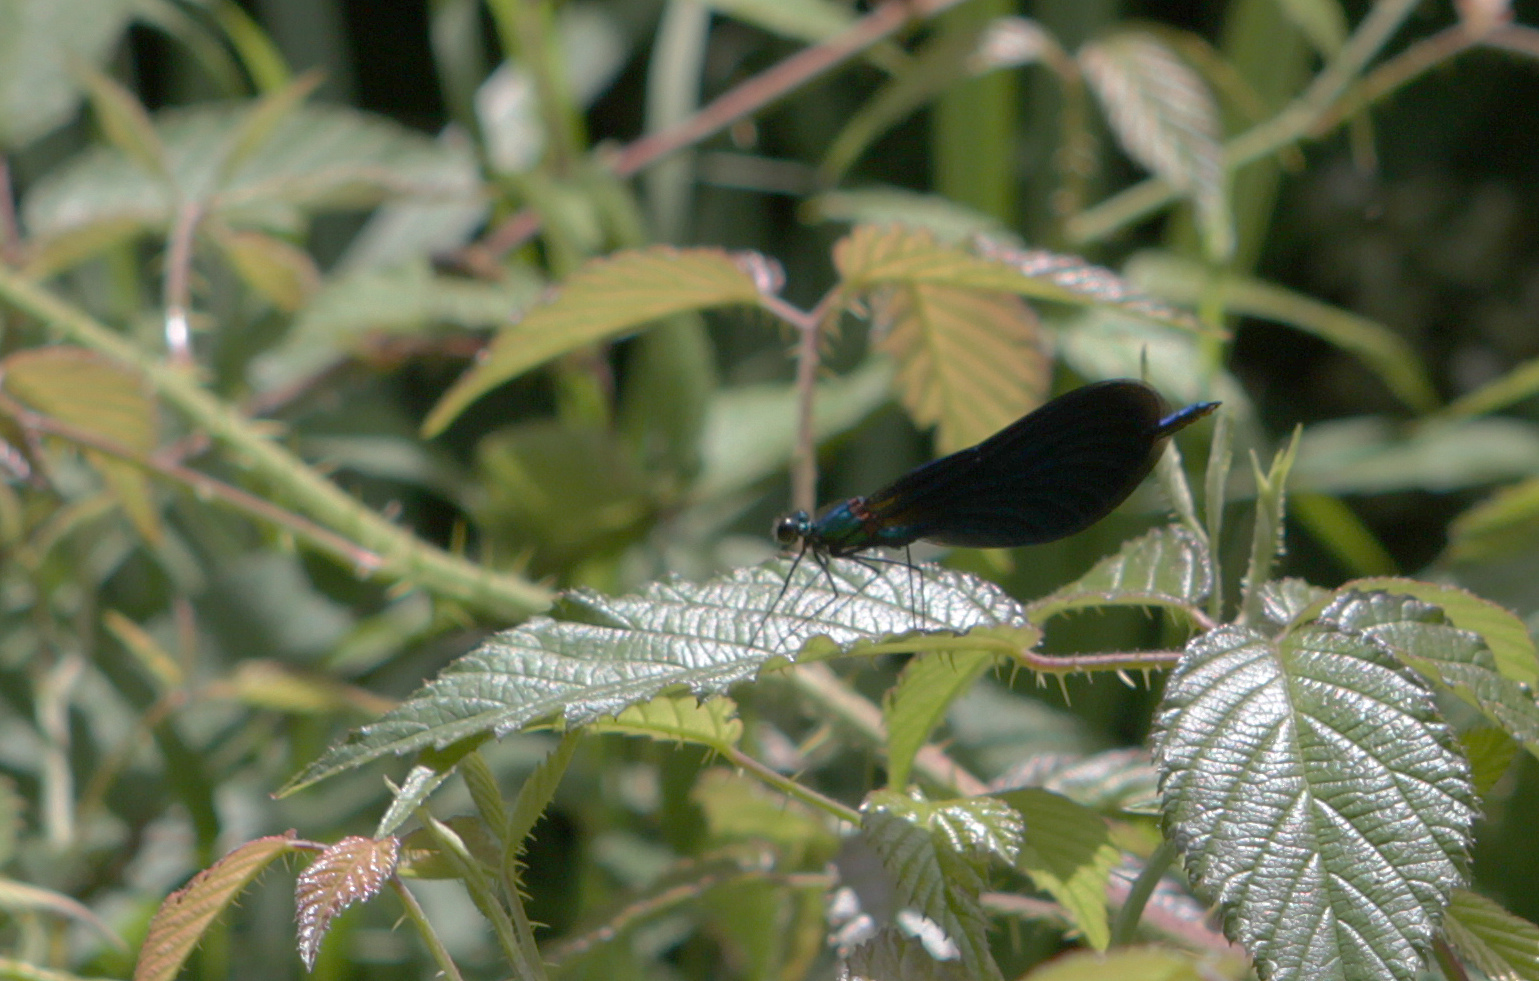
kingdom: Animalia
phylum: Arthropoda
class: Insecta
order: Odonata
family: Calopterygidae
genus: Calopteryx
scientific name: Calopteryx virgo
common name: Beautiful demoiselle
